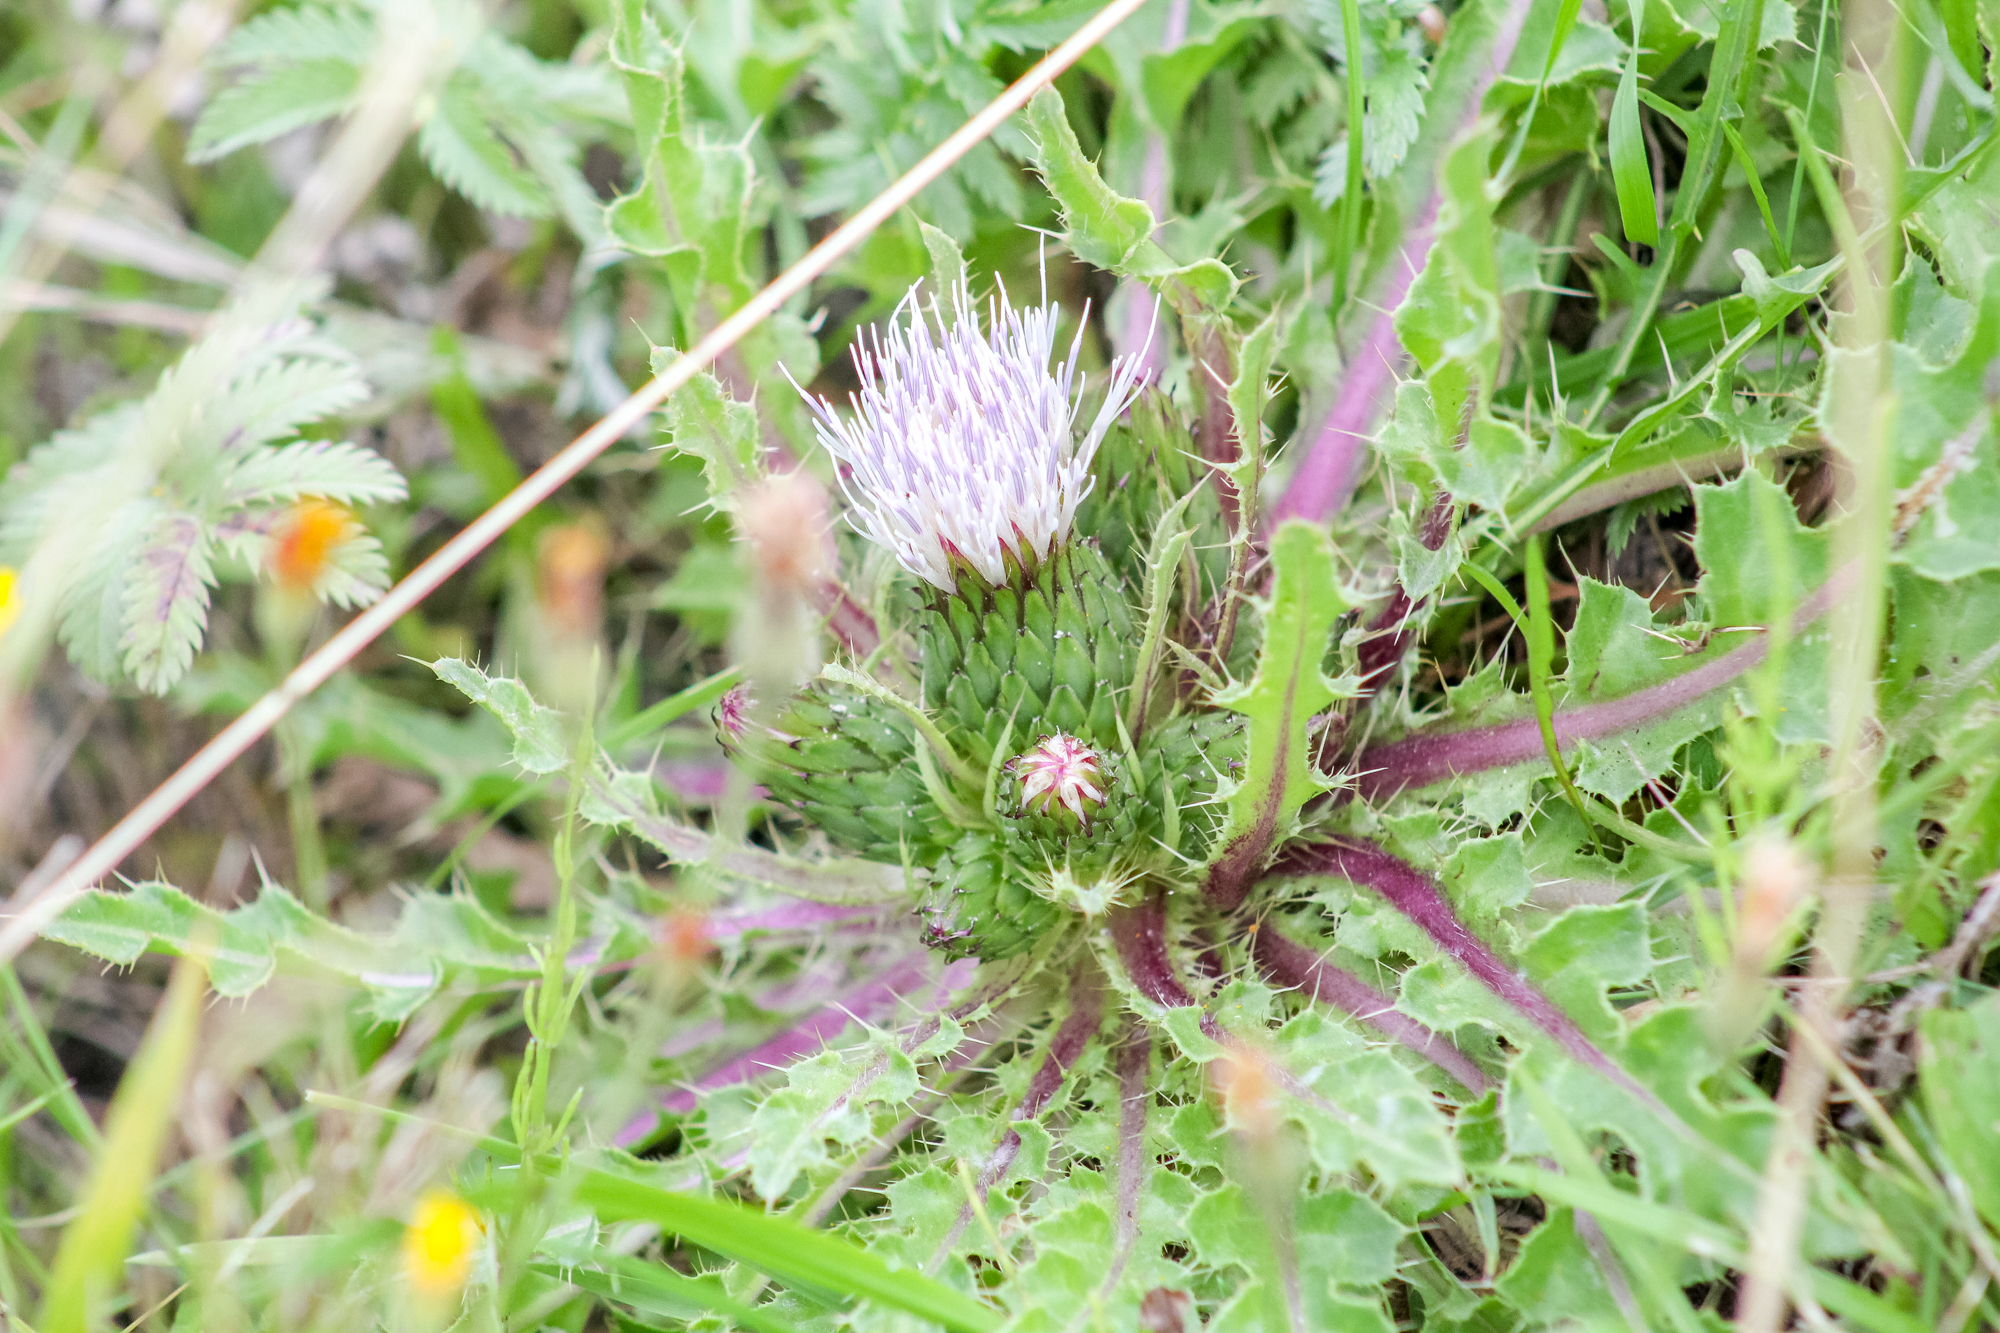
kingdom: Plantae
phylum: Tracheophyta
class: Magnoliopsida
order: Asterales
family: Asteraceae
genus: Cirsium
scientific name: Cirsium esculentum
